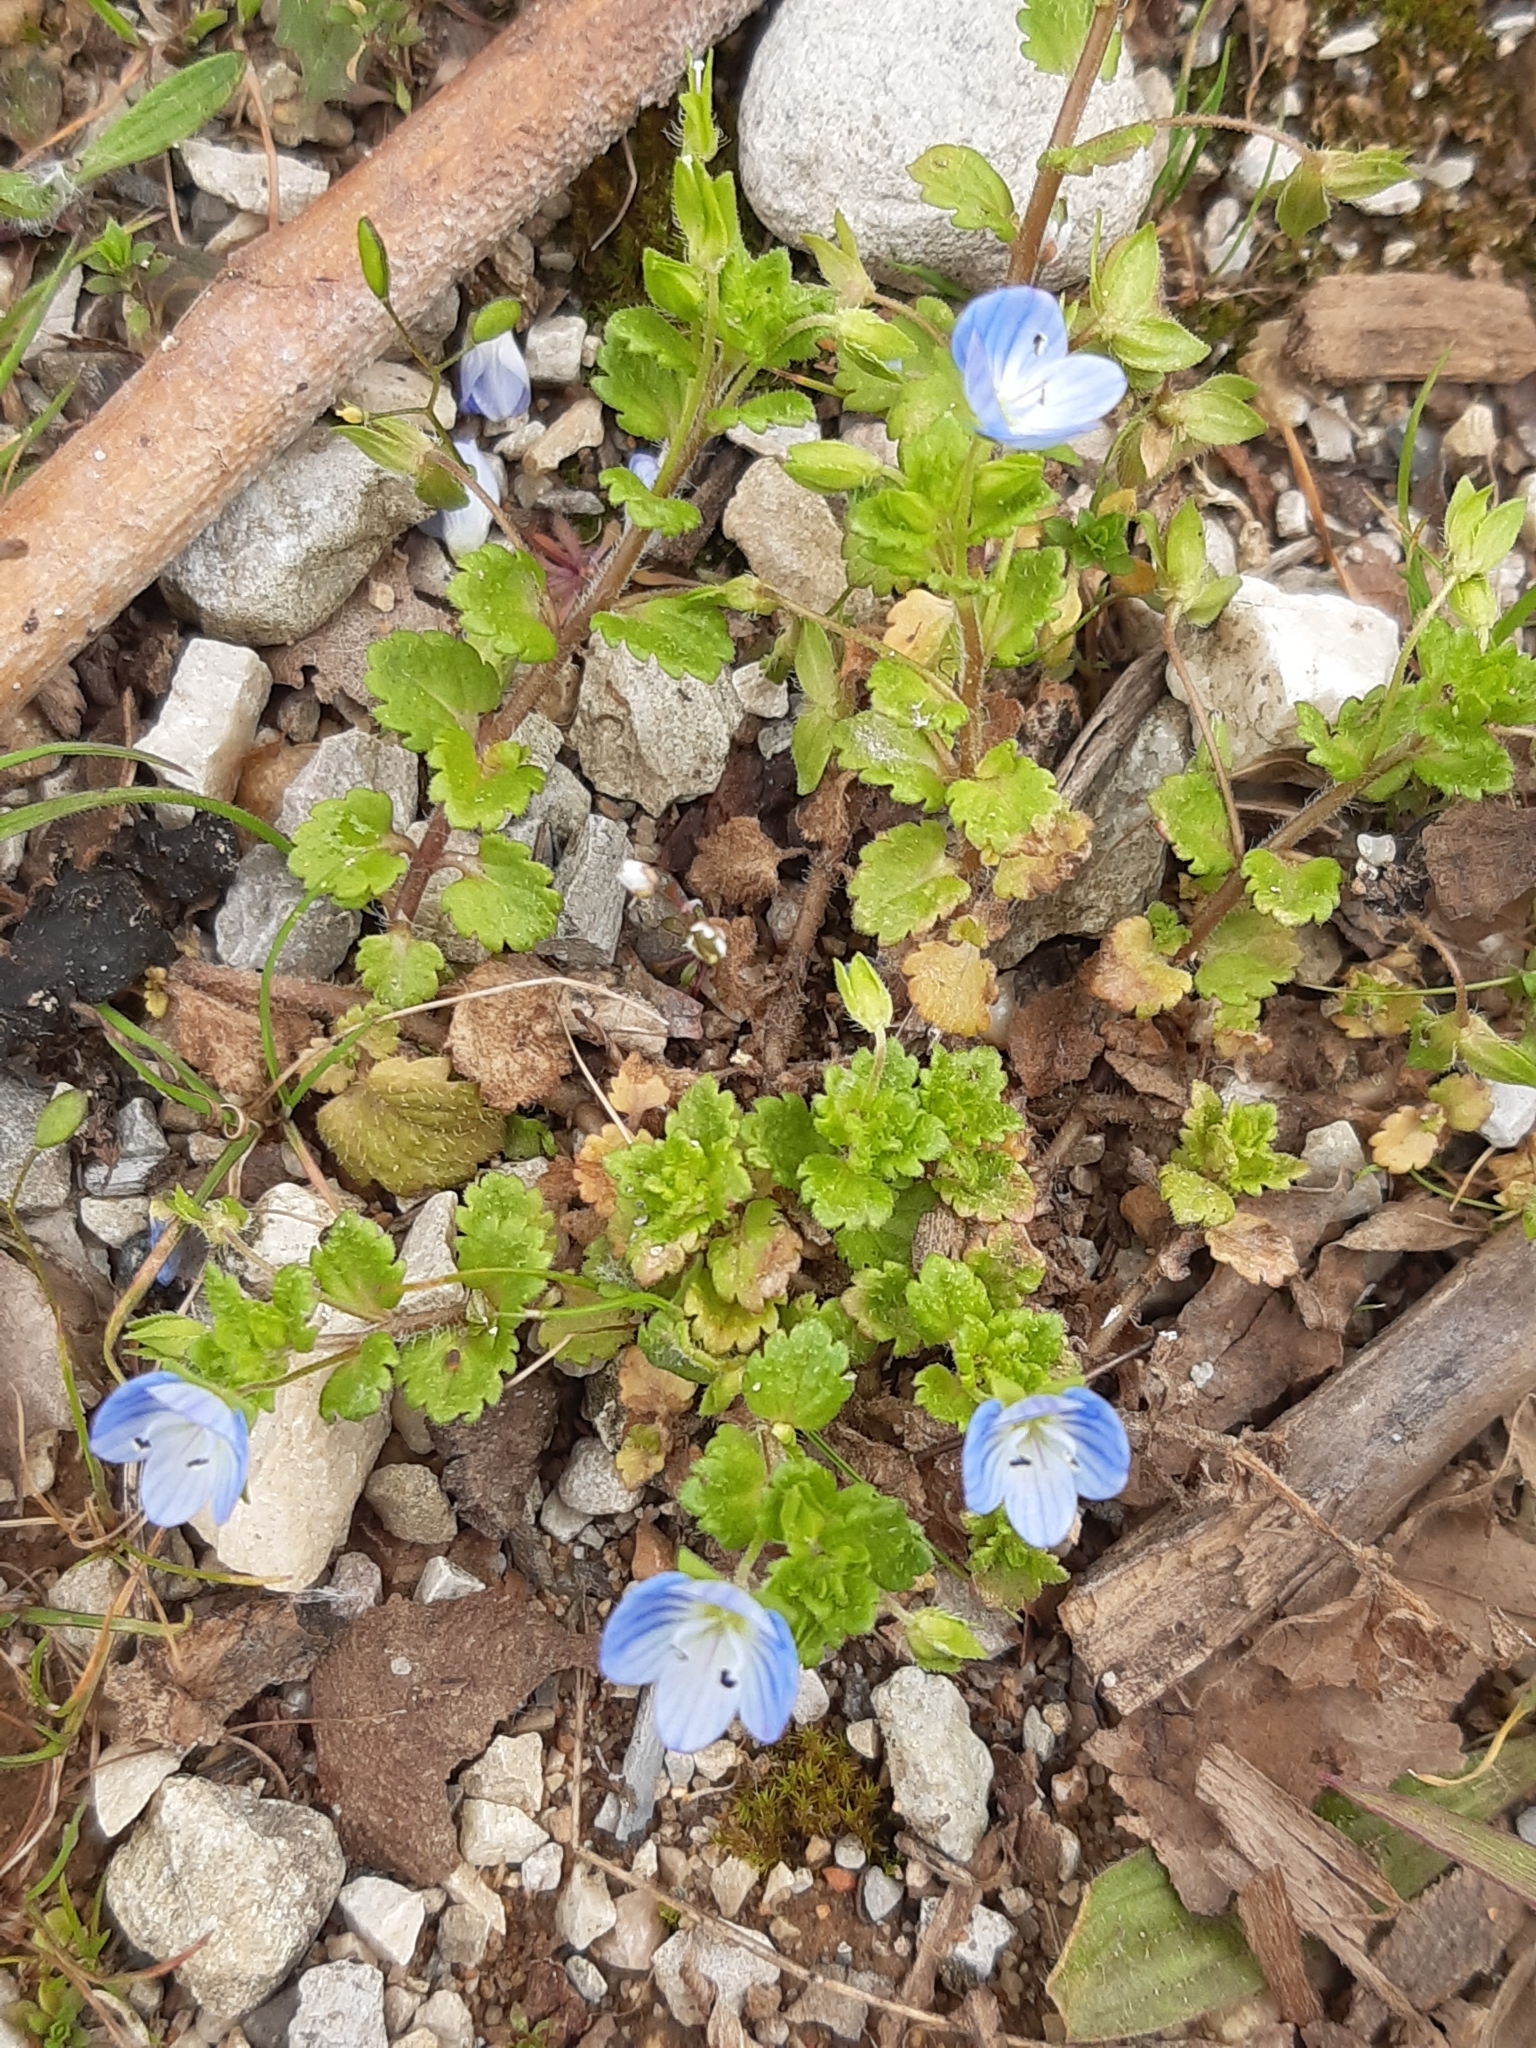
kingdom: Plantae
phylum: Tracheophyta
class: Magnoliopsida
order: Lamiales
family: Plantaginaceae
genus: Veronica
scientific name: Veronica persica
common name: Common field-speedwell
